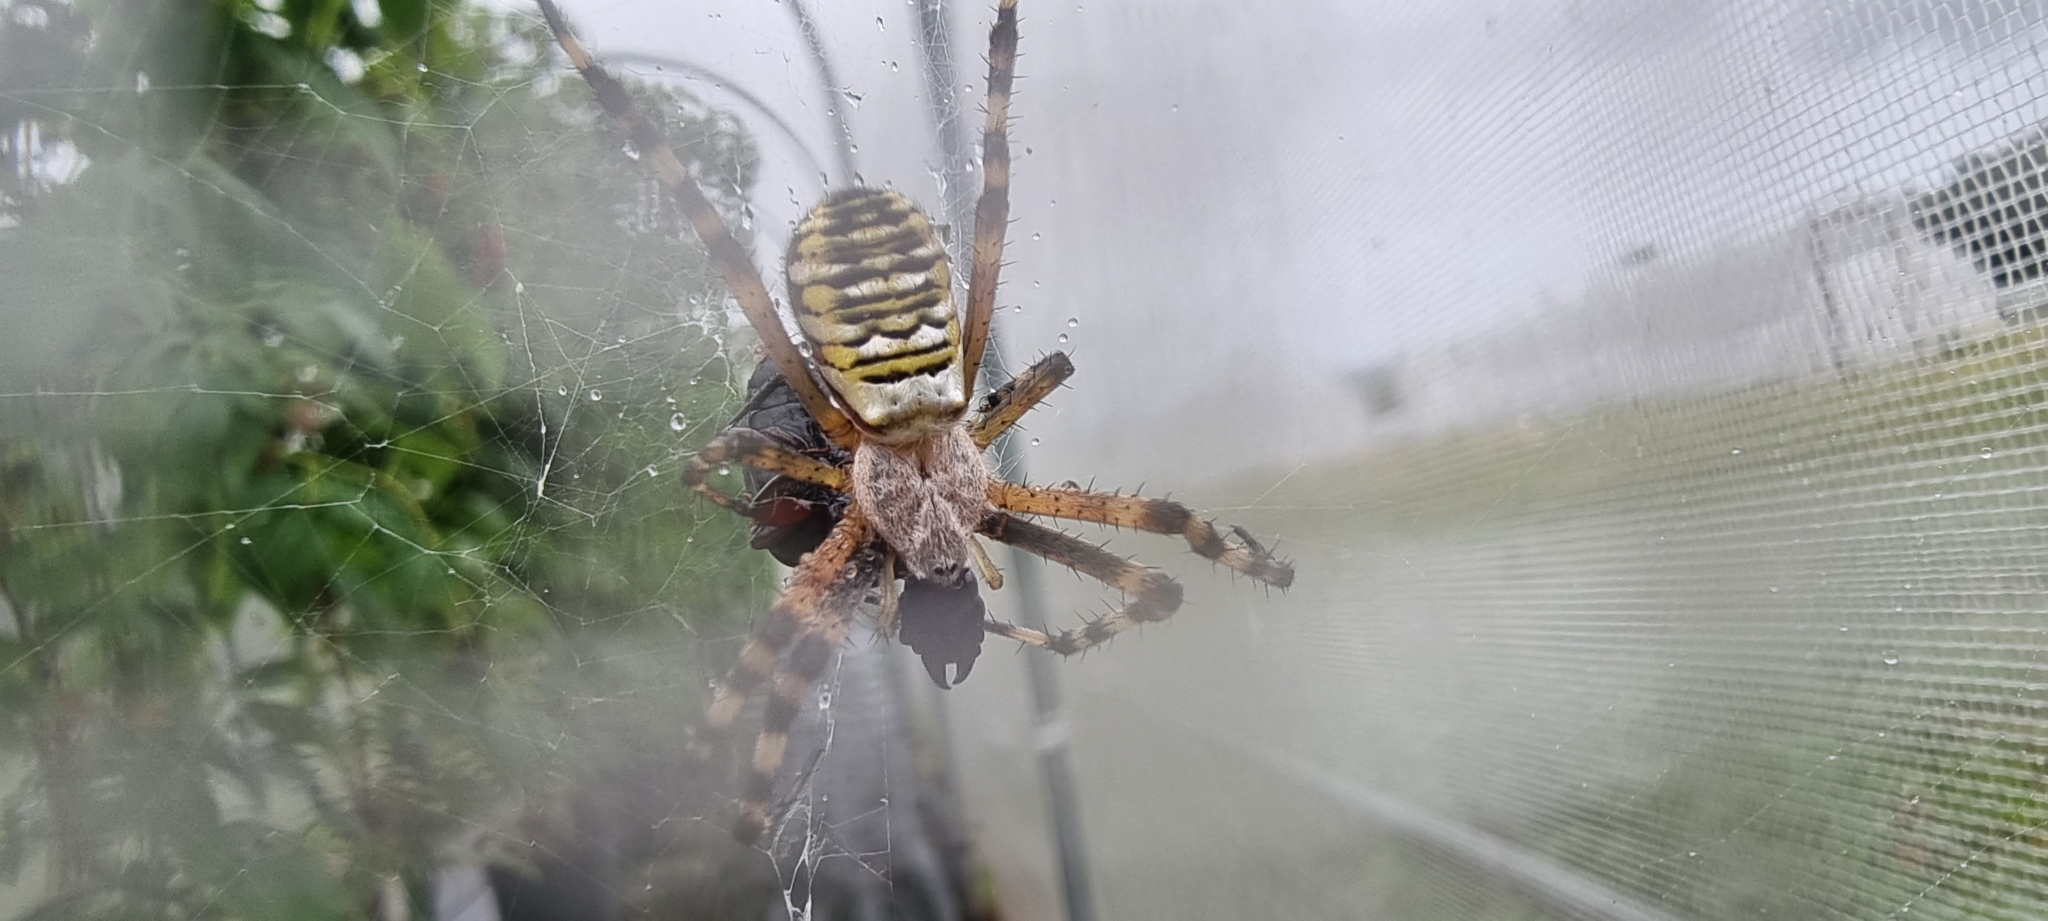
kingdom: Animalia
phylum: Arthropoda
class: Arachnida
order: Araneae
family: Araneidae
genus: Argiope
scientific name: Argiope bruennichi
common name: Wasp spider
